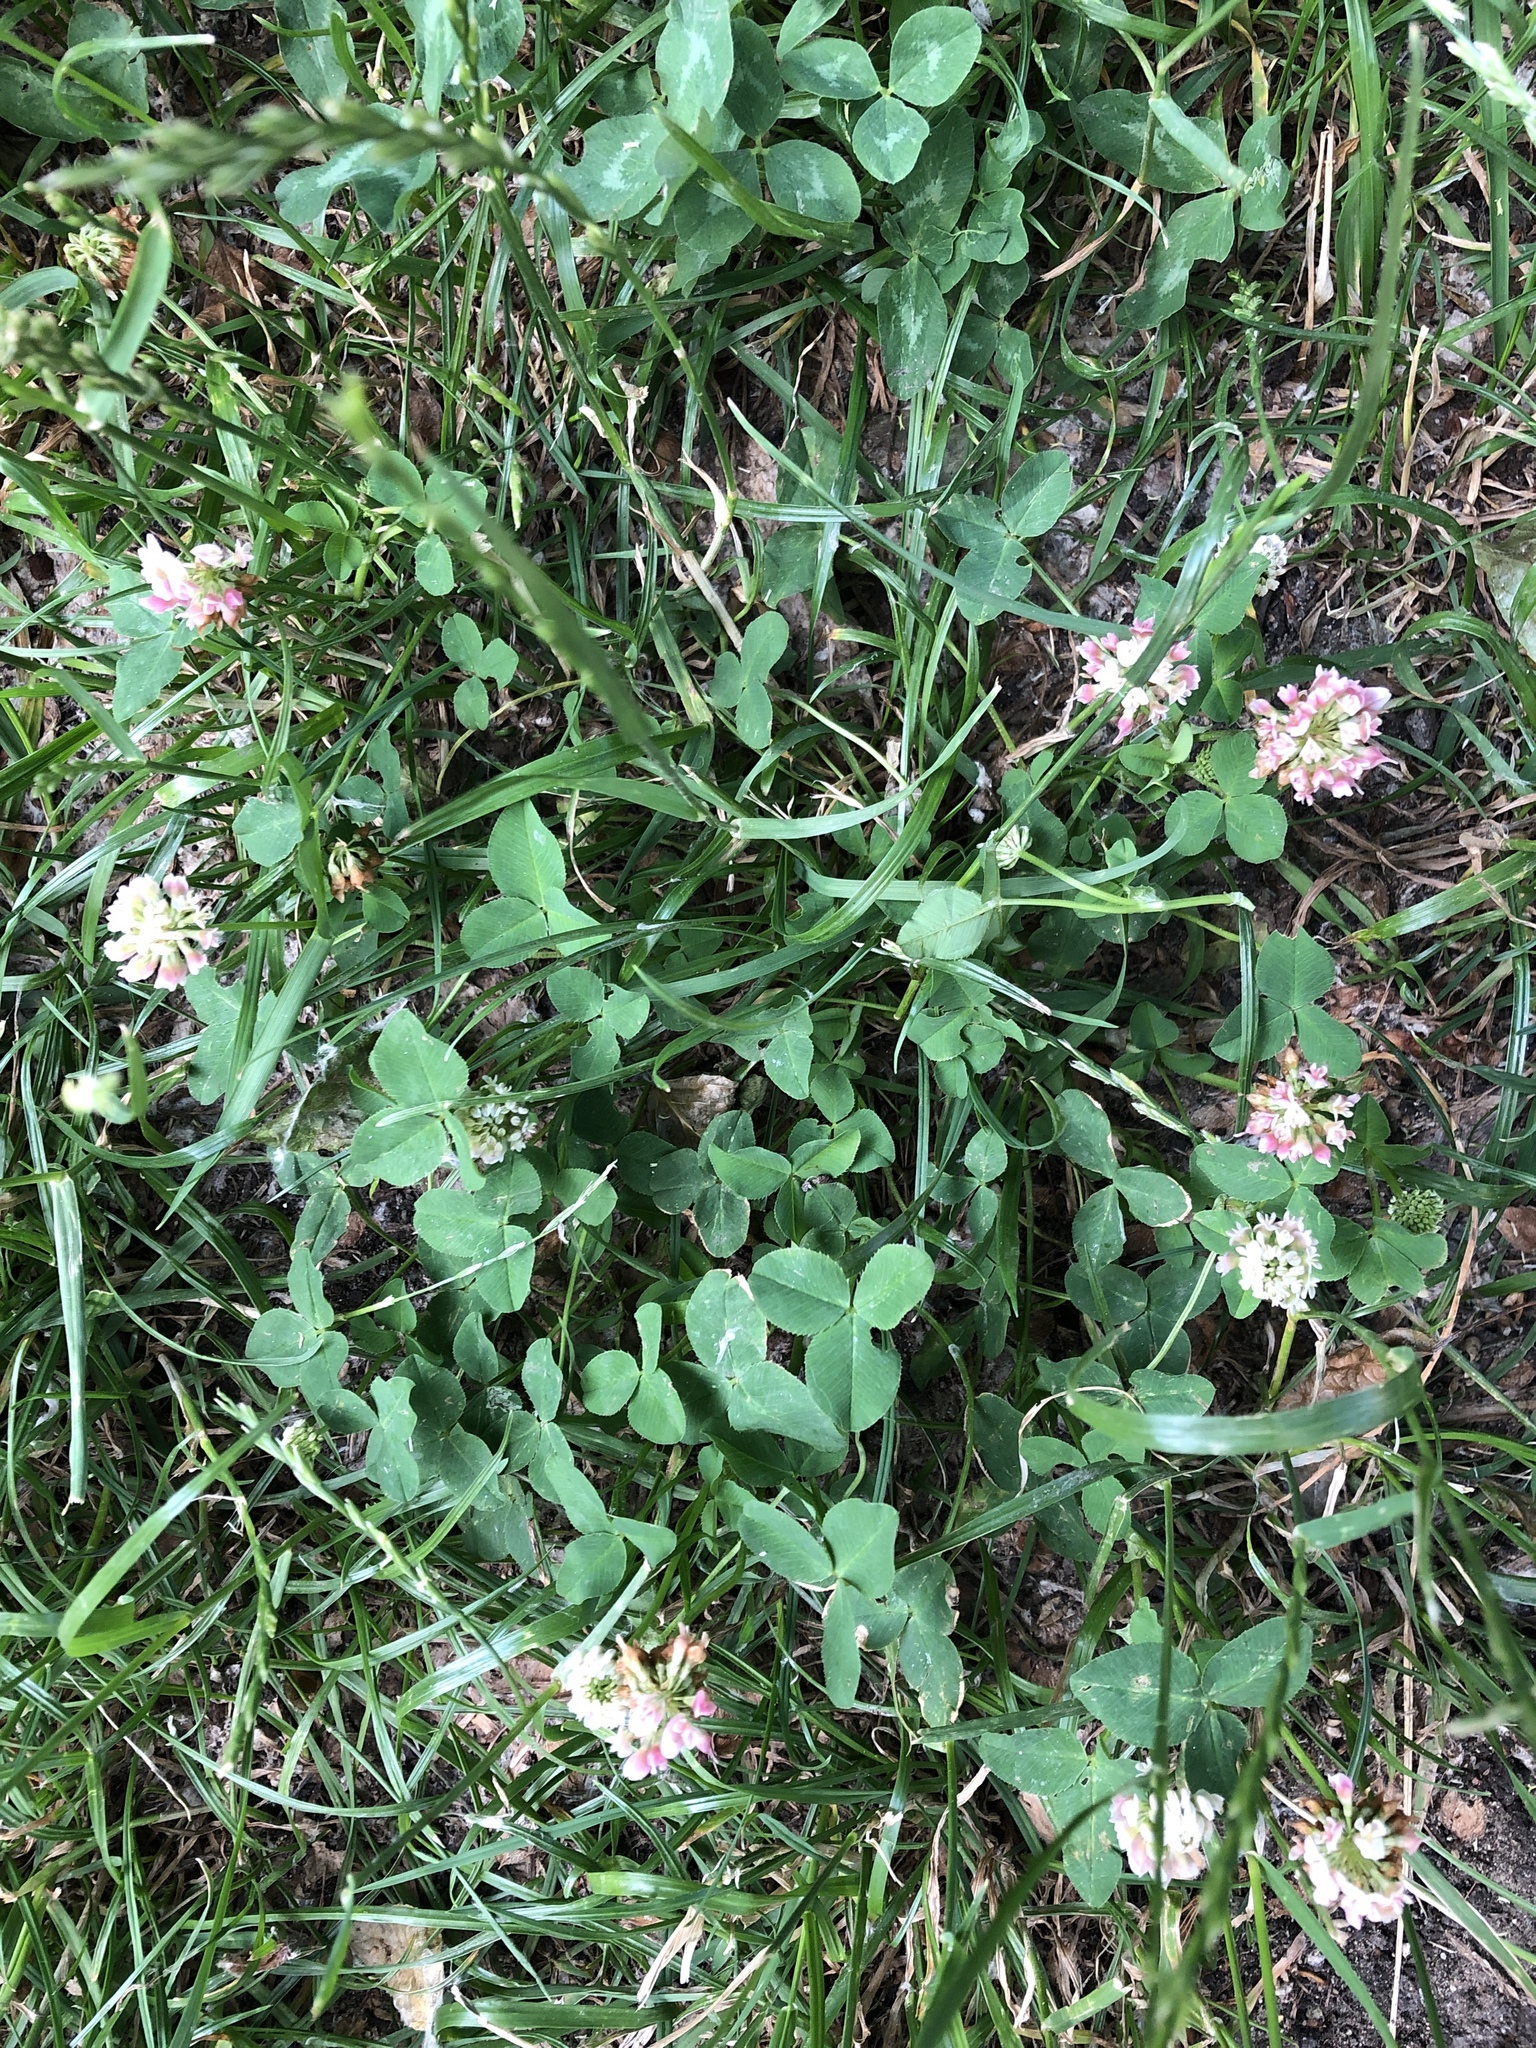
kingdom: Plantae
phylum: Tracheophyta
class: Magnoliopsida
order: Fabales
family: Fabaceae
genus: Trifolium
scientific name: Trifolium hybridum
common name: Alsike clover
